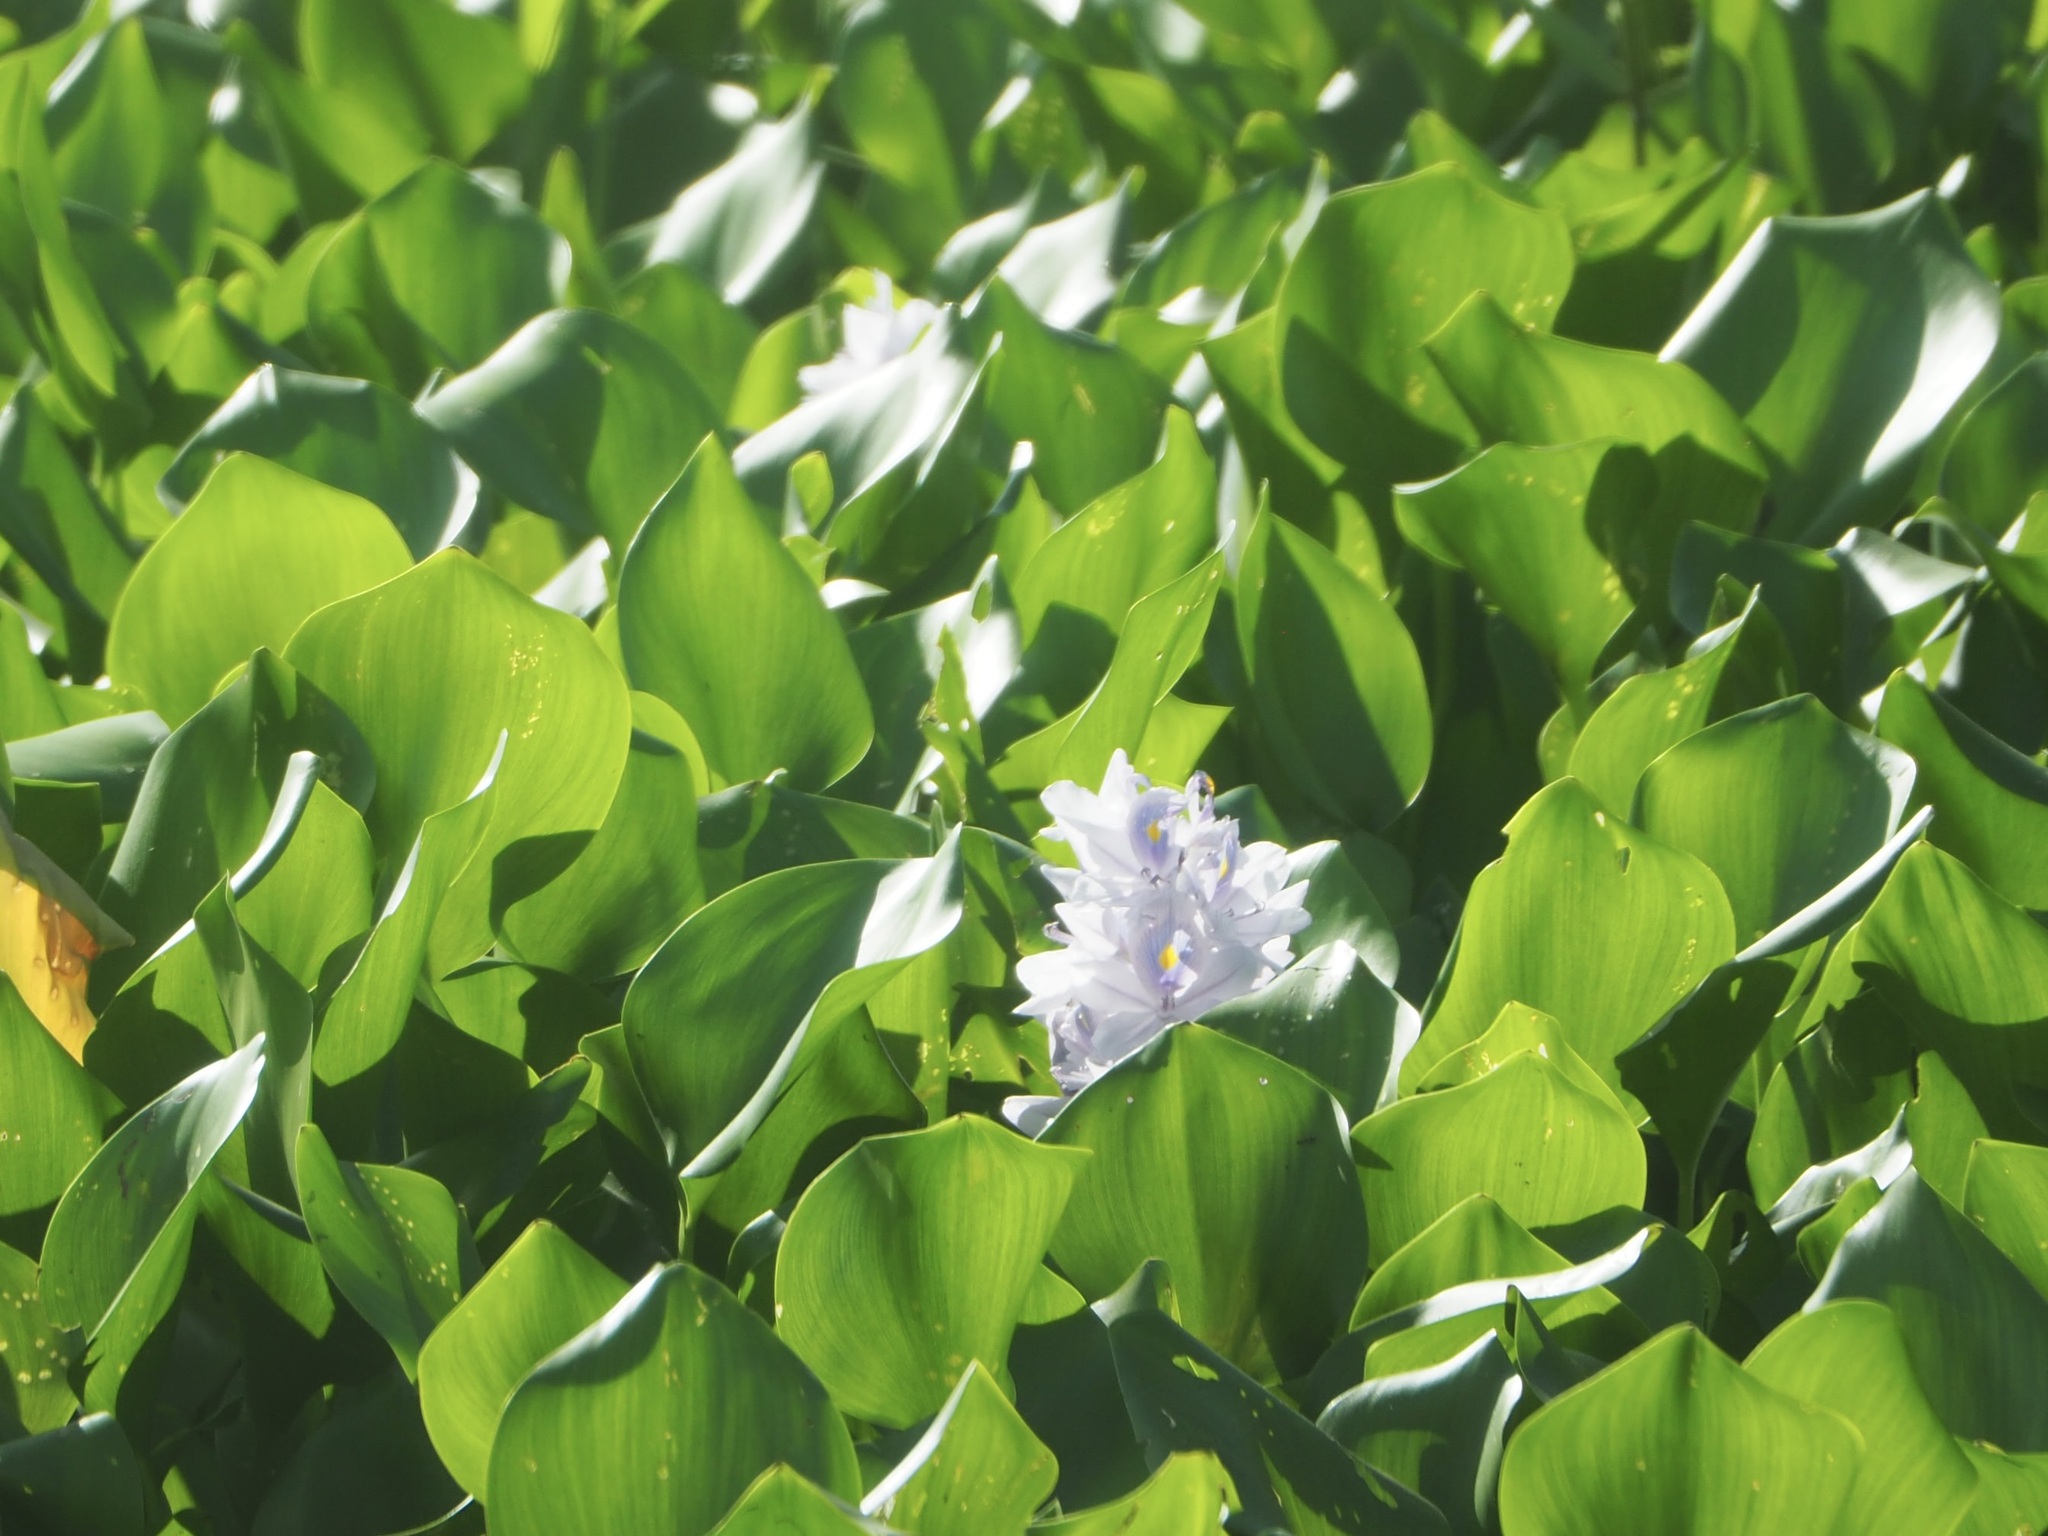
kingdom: Plantae
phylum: Tracheophyta
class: Liliopsida
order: Commelinales
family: Pontederiaceae
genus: Pontederia
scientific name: Pontederia crassipes
